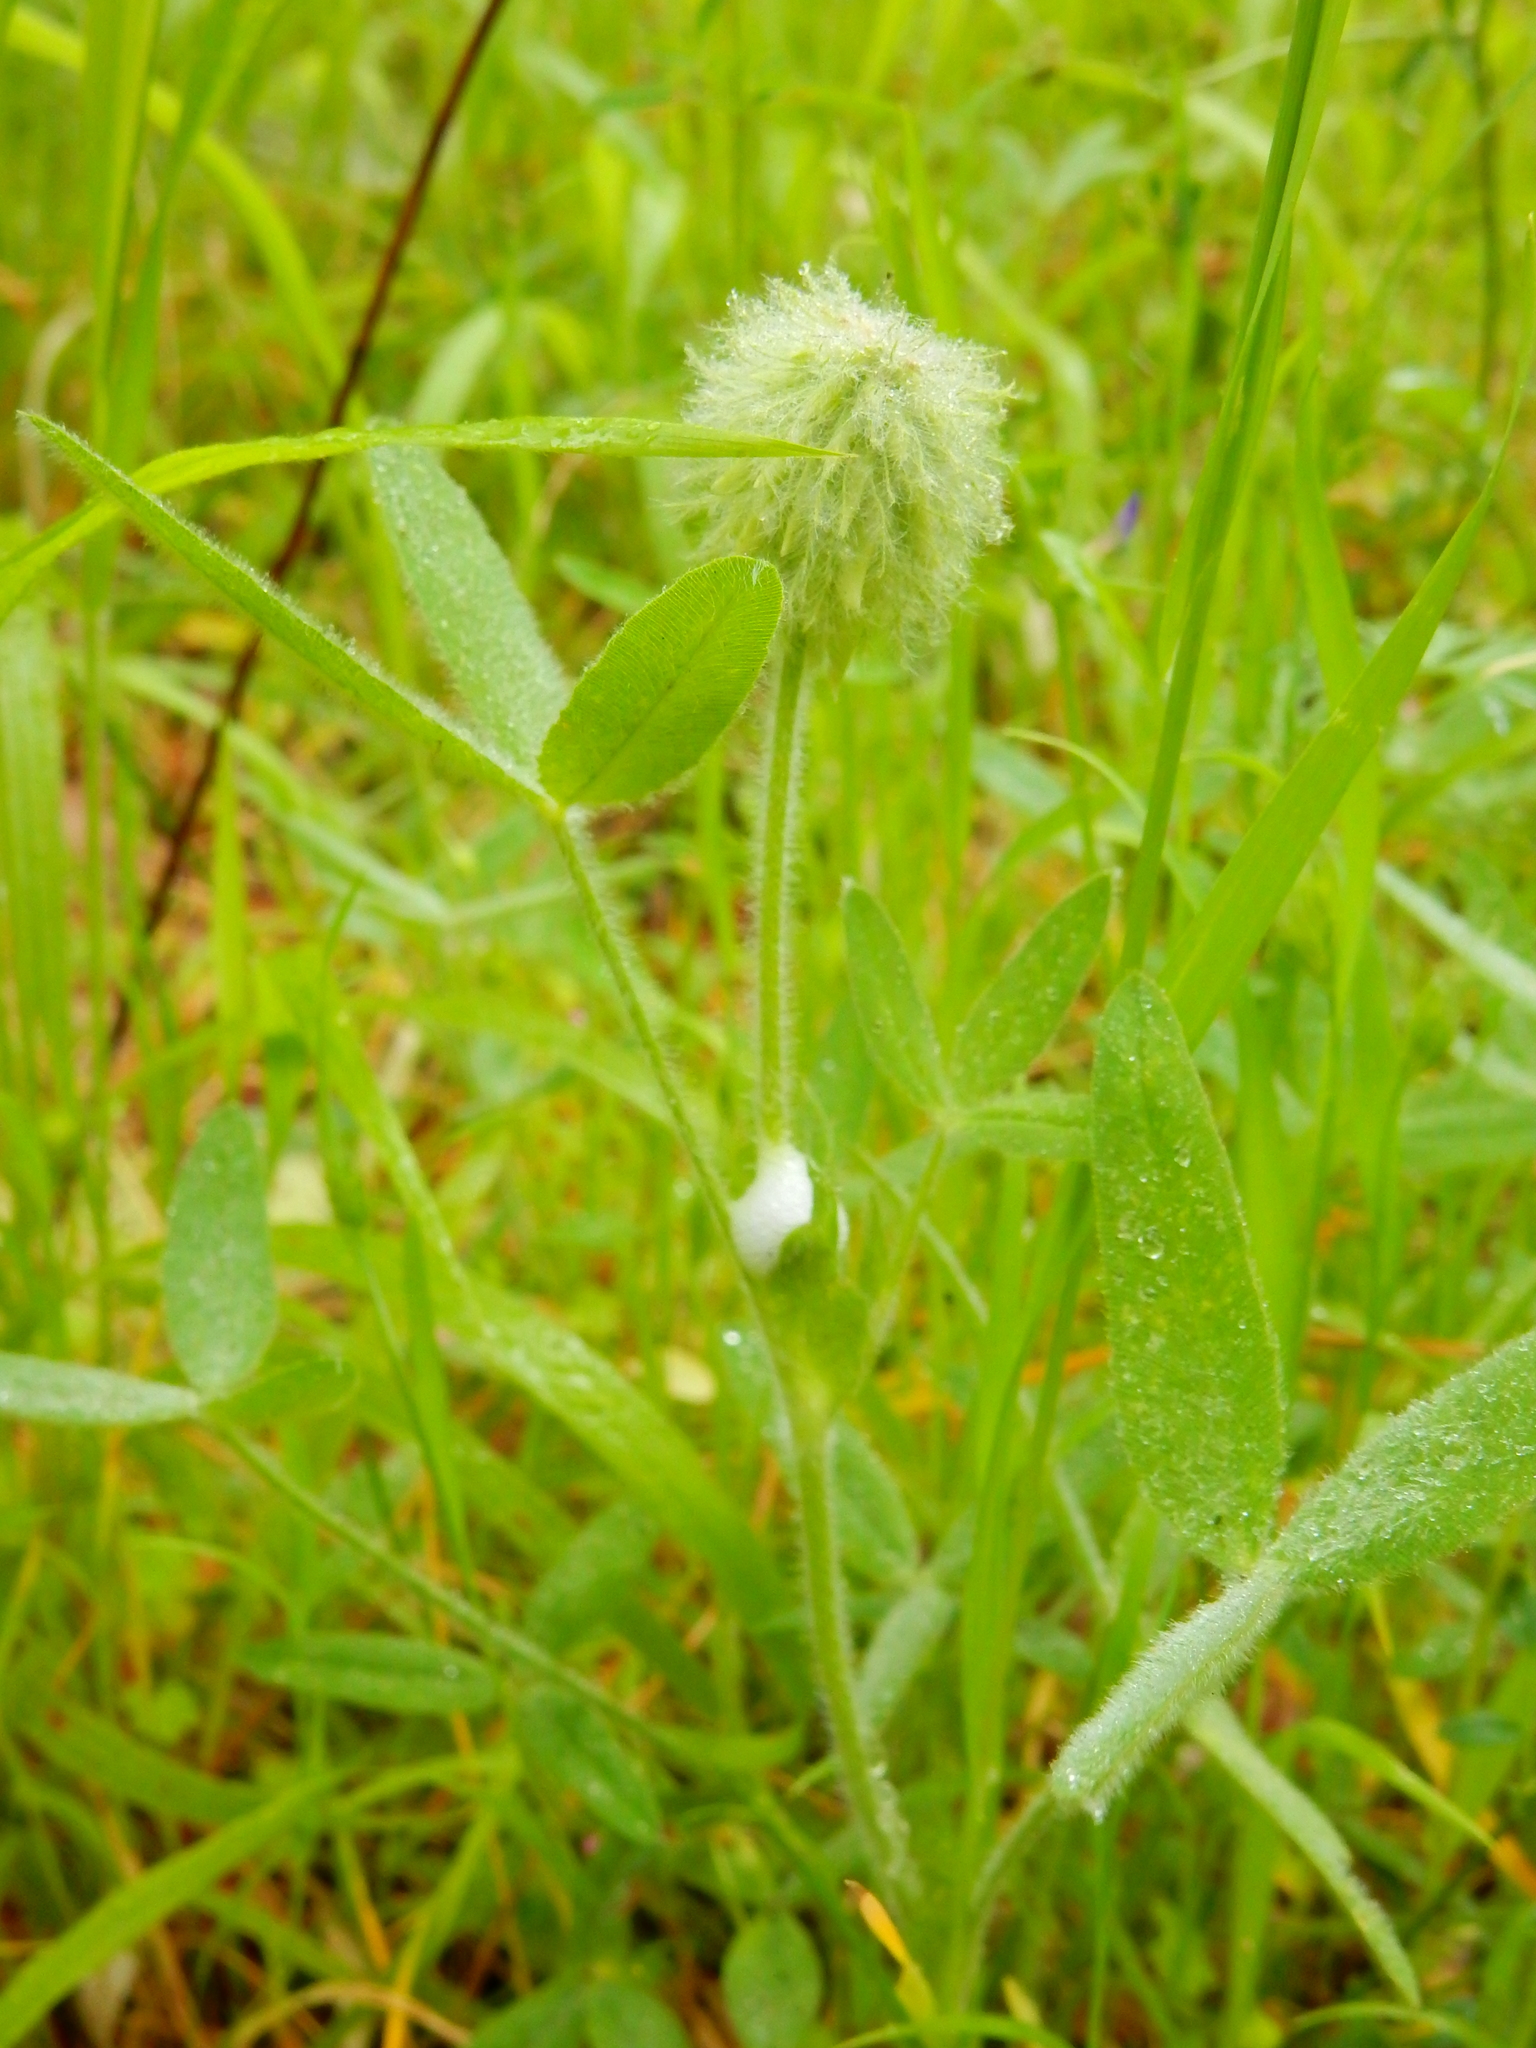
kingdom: Plantae
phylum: Tracheophyta
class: Magnoliopsida
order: Fabales
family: Fabaceae
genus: Trifolium
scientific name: Trifolium eriocephalum
